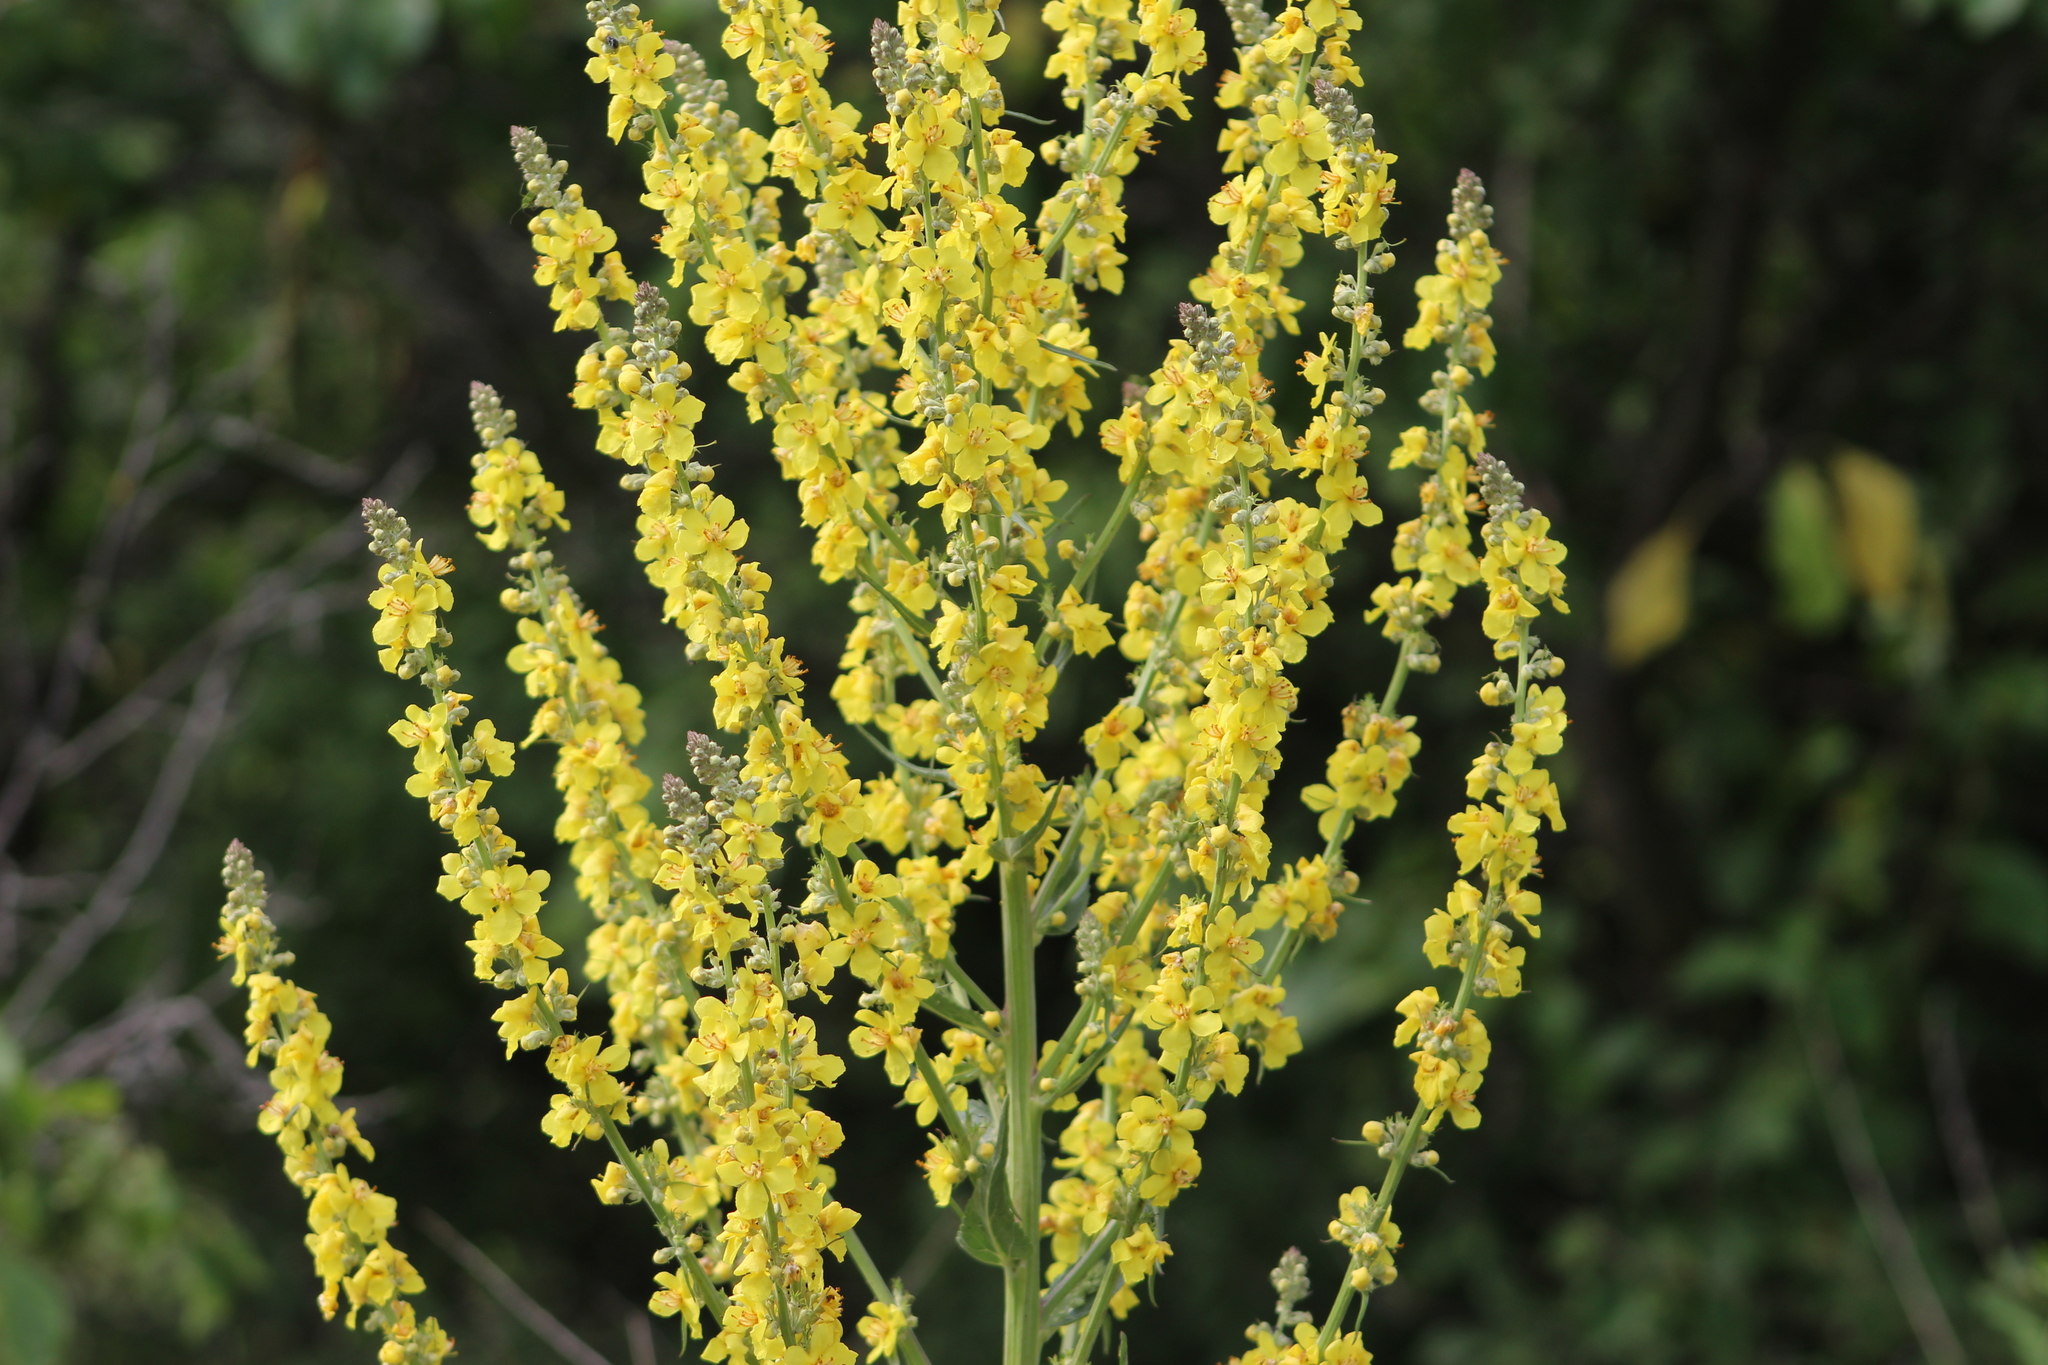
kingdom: Plantae
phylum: Tracheophyta
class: Magnoliopsida
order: Lamiales
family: Scrophulariaceae
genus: Verbascum
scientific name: Verbascum lychnitis
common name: White mullein
